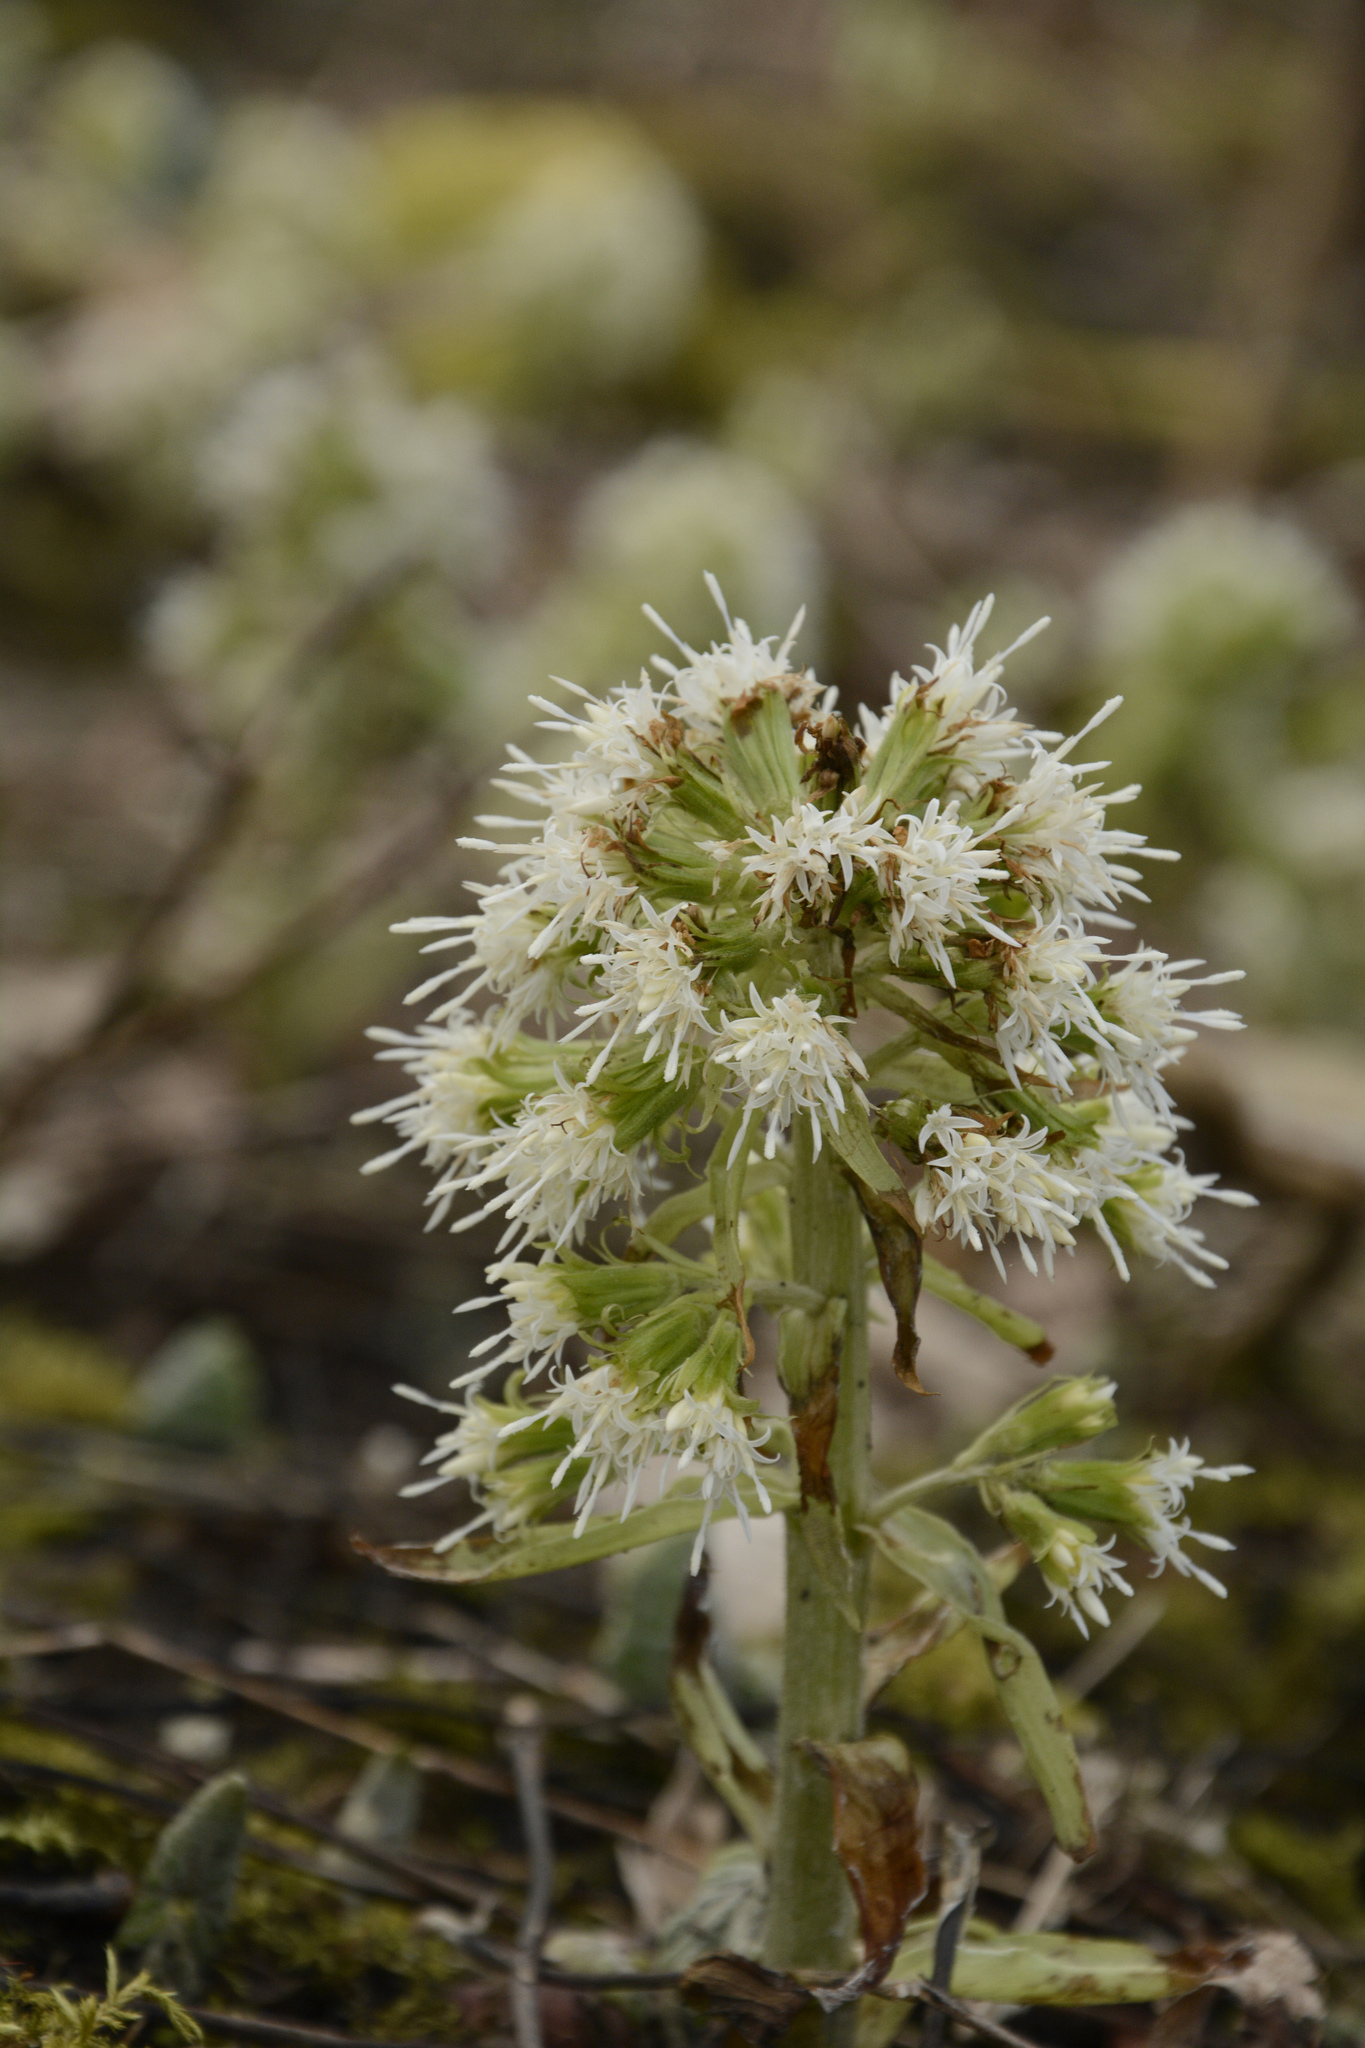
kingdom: Plantae
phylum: Tracheophyta
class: Magnoliopsida
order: Asterales
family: Asteraceae
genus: Petasites
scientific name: Petasites albus
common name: White butterbur
